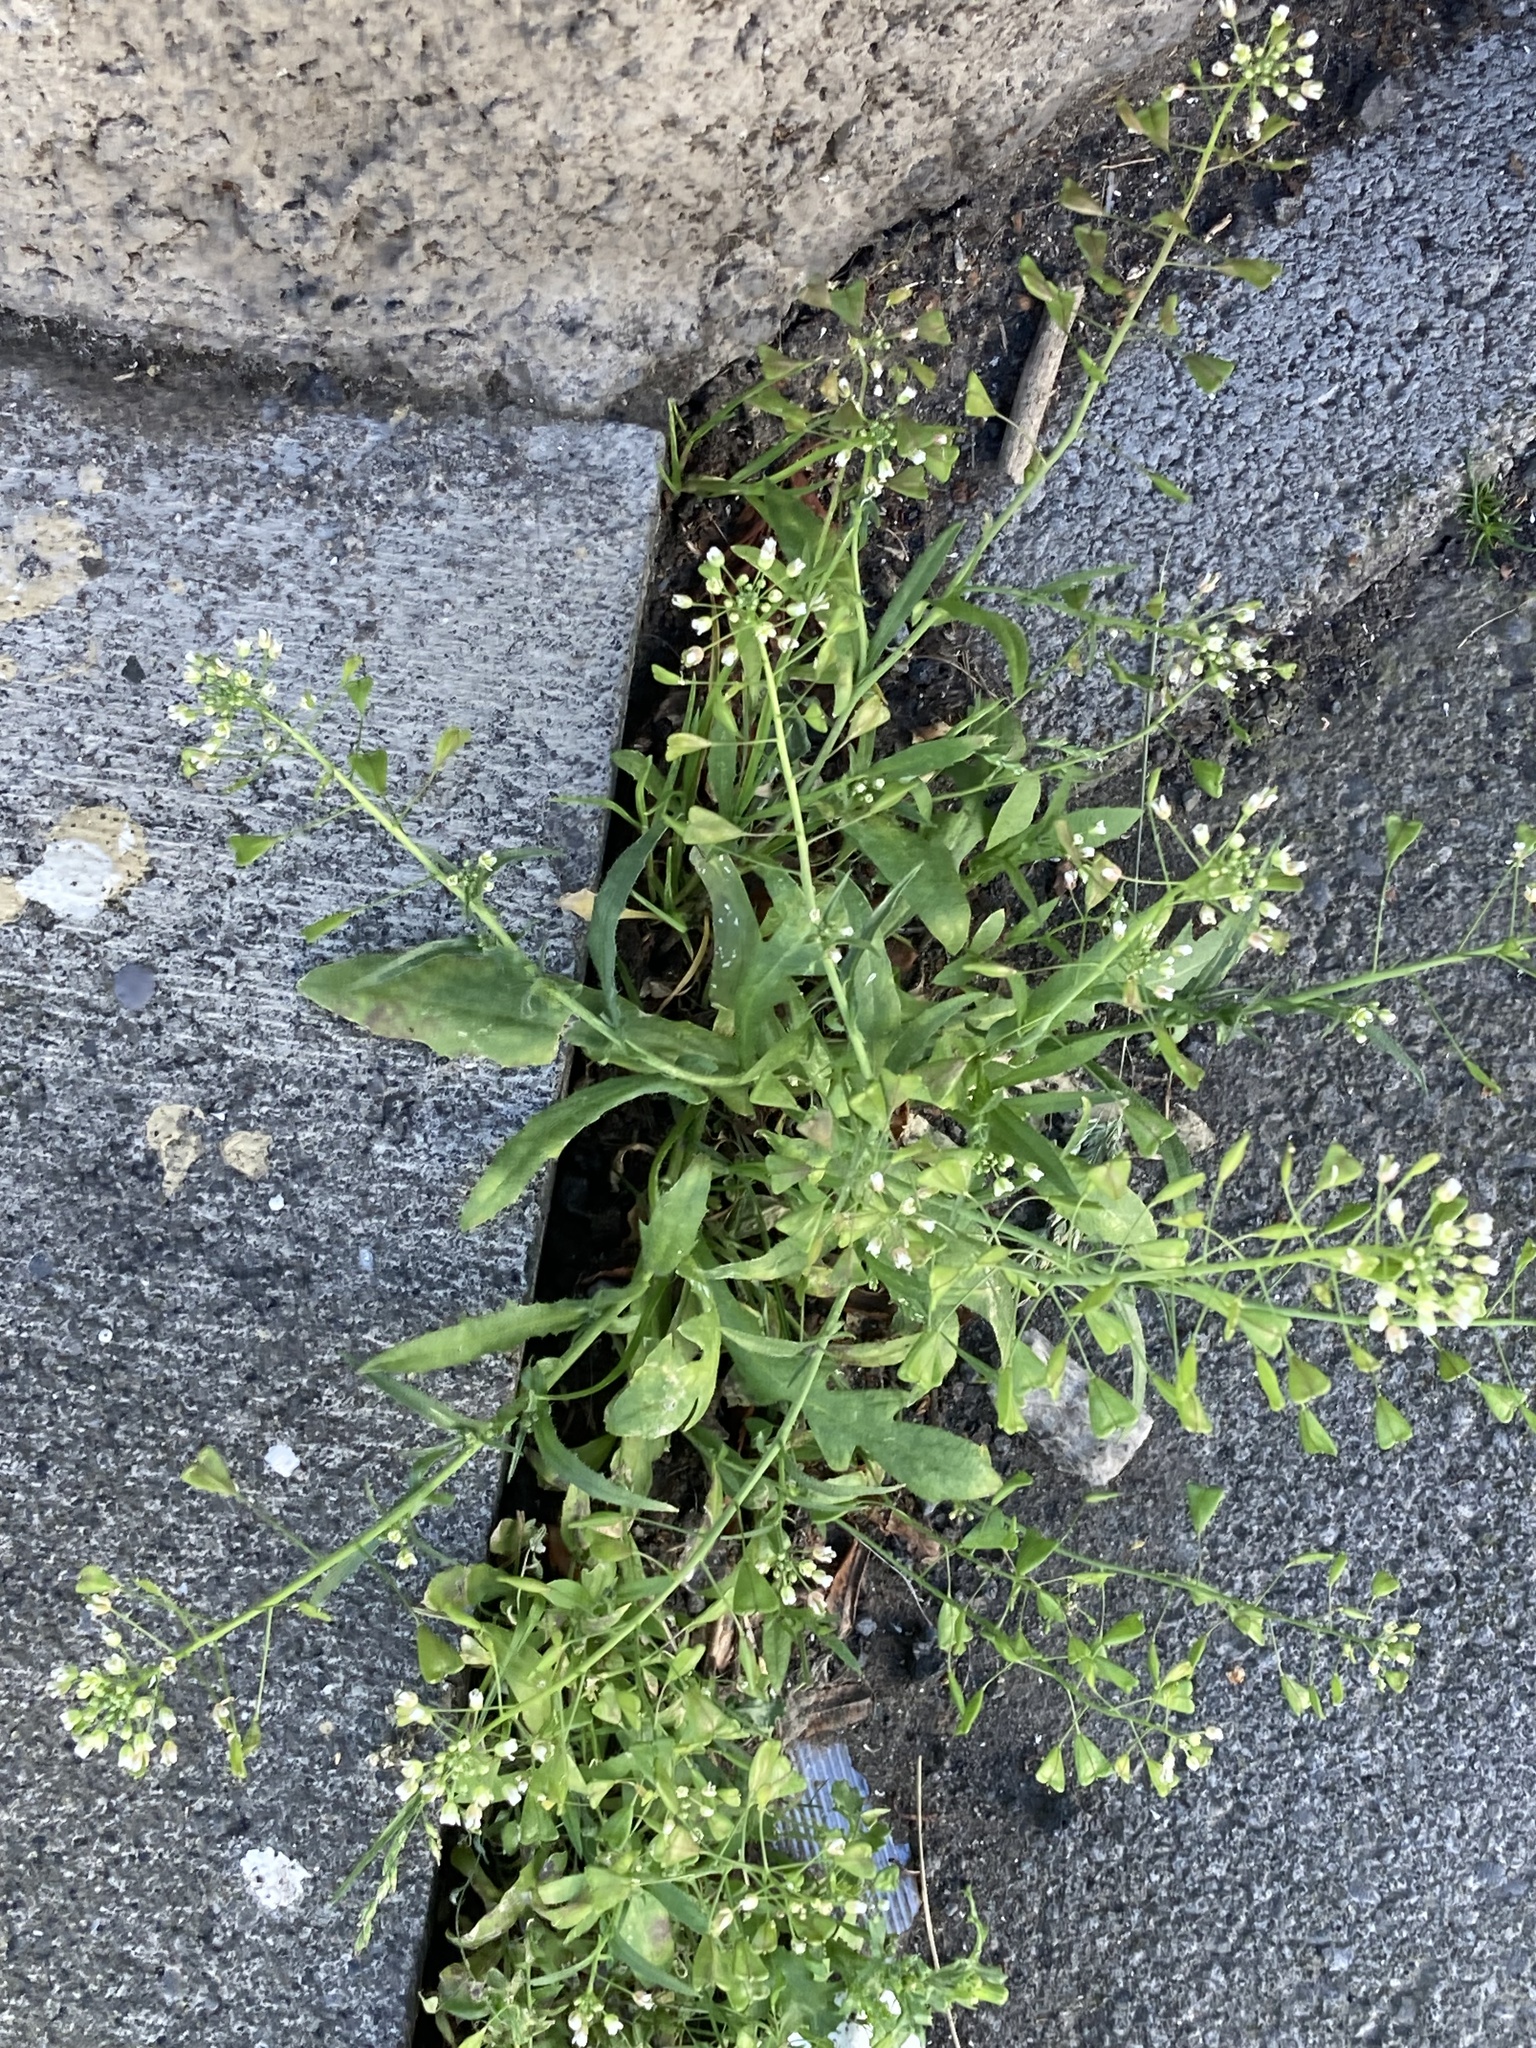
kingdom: Plantae
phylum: Tracheophyta
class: Magnoliopsida
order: Brassicales
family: Brassicaceae
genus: Capsella
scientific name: Capsella bursa-pastoris
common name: Shepherd's purse
